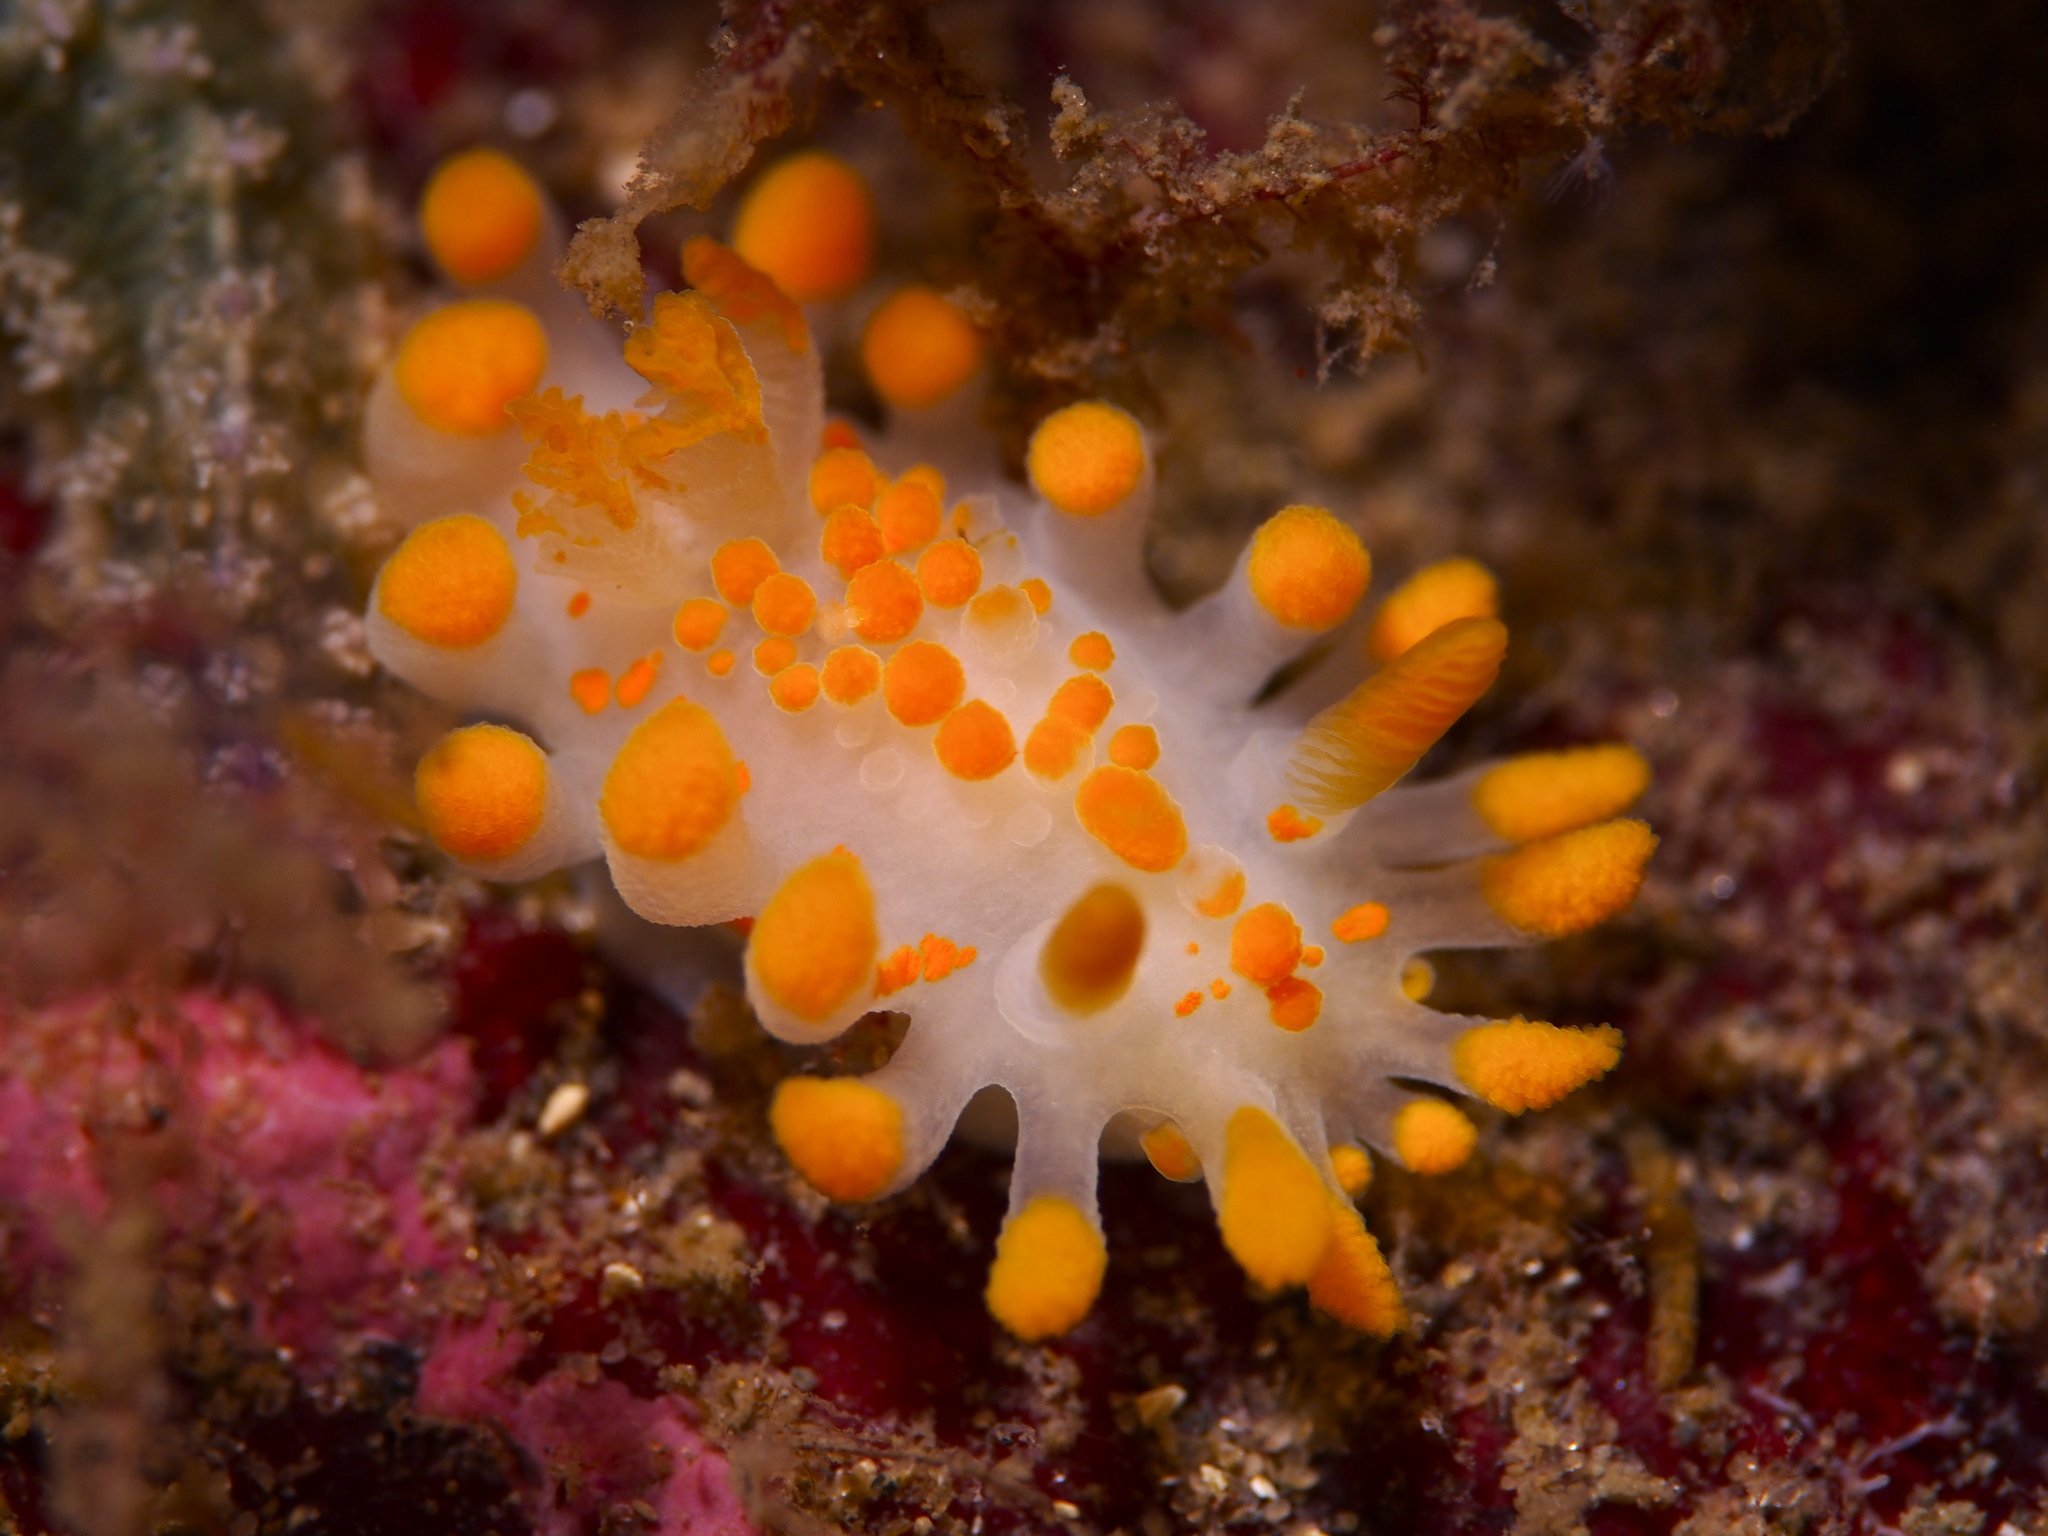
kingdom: Animalia
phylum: Mollusca
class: Gastropoda
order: Nudibranchia
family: Polyceridae
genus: Limacia
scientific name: Limacia clavigera
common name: Orange-clubbed sea slug
